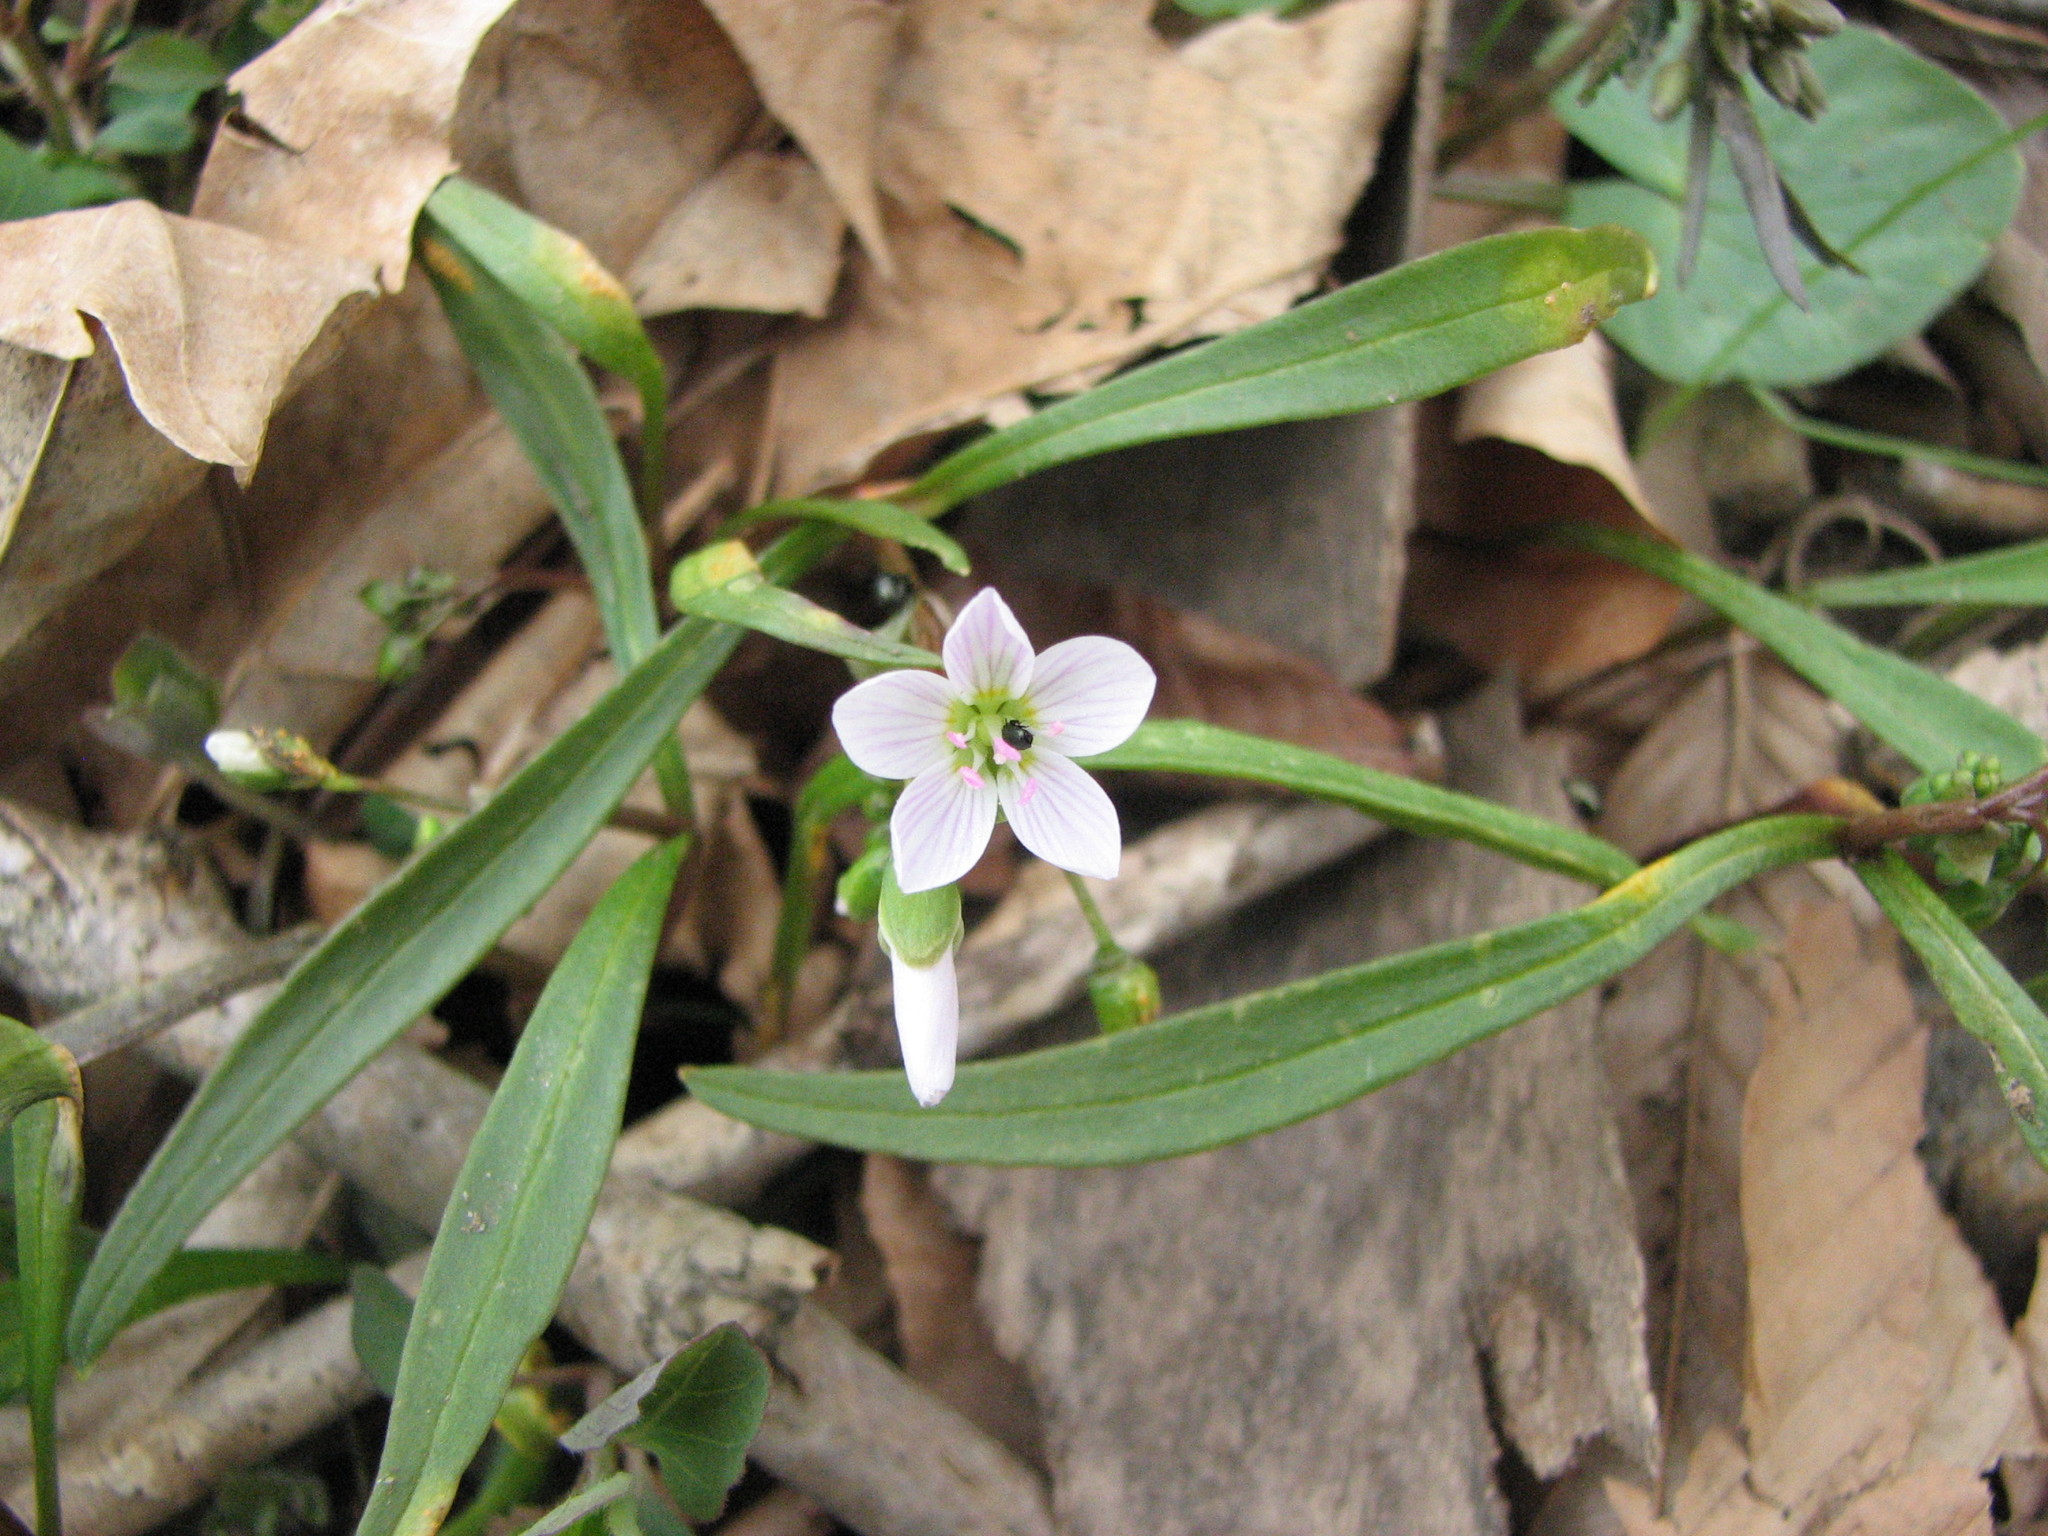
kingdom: Plantae
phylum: Tracheophyta
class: Magnoliopsida
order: Caryophyllales
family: Montiaceae
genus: Claytonia
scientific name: Claytonia virginica
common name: Virginia springbeauty
